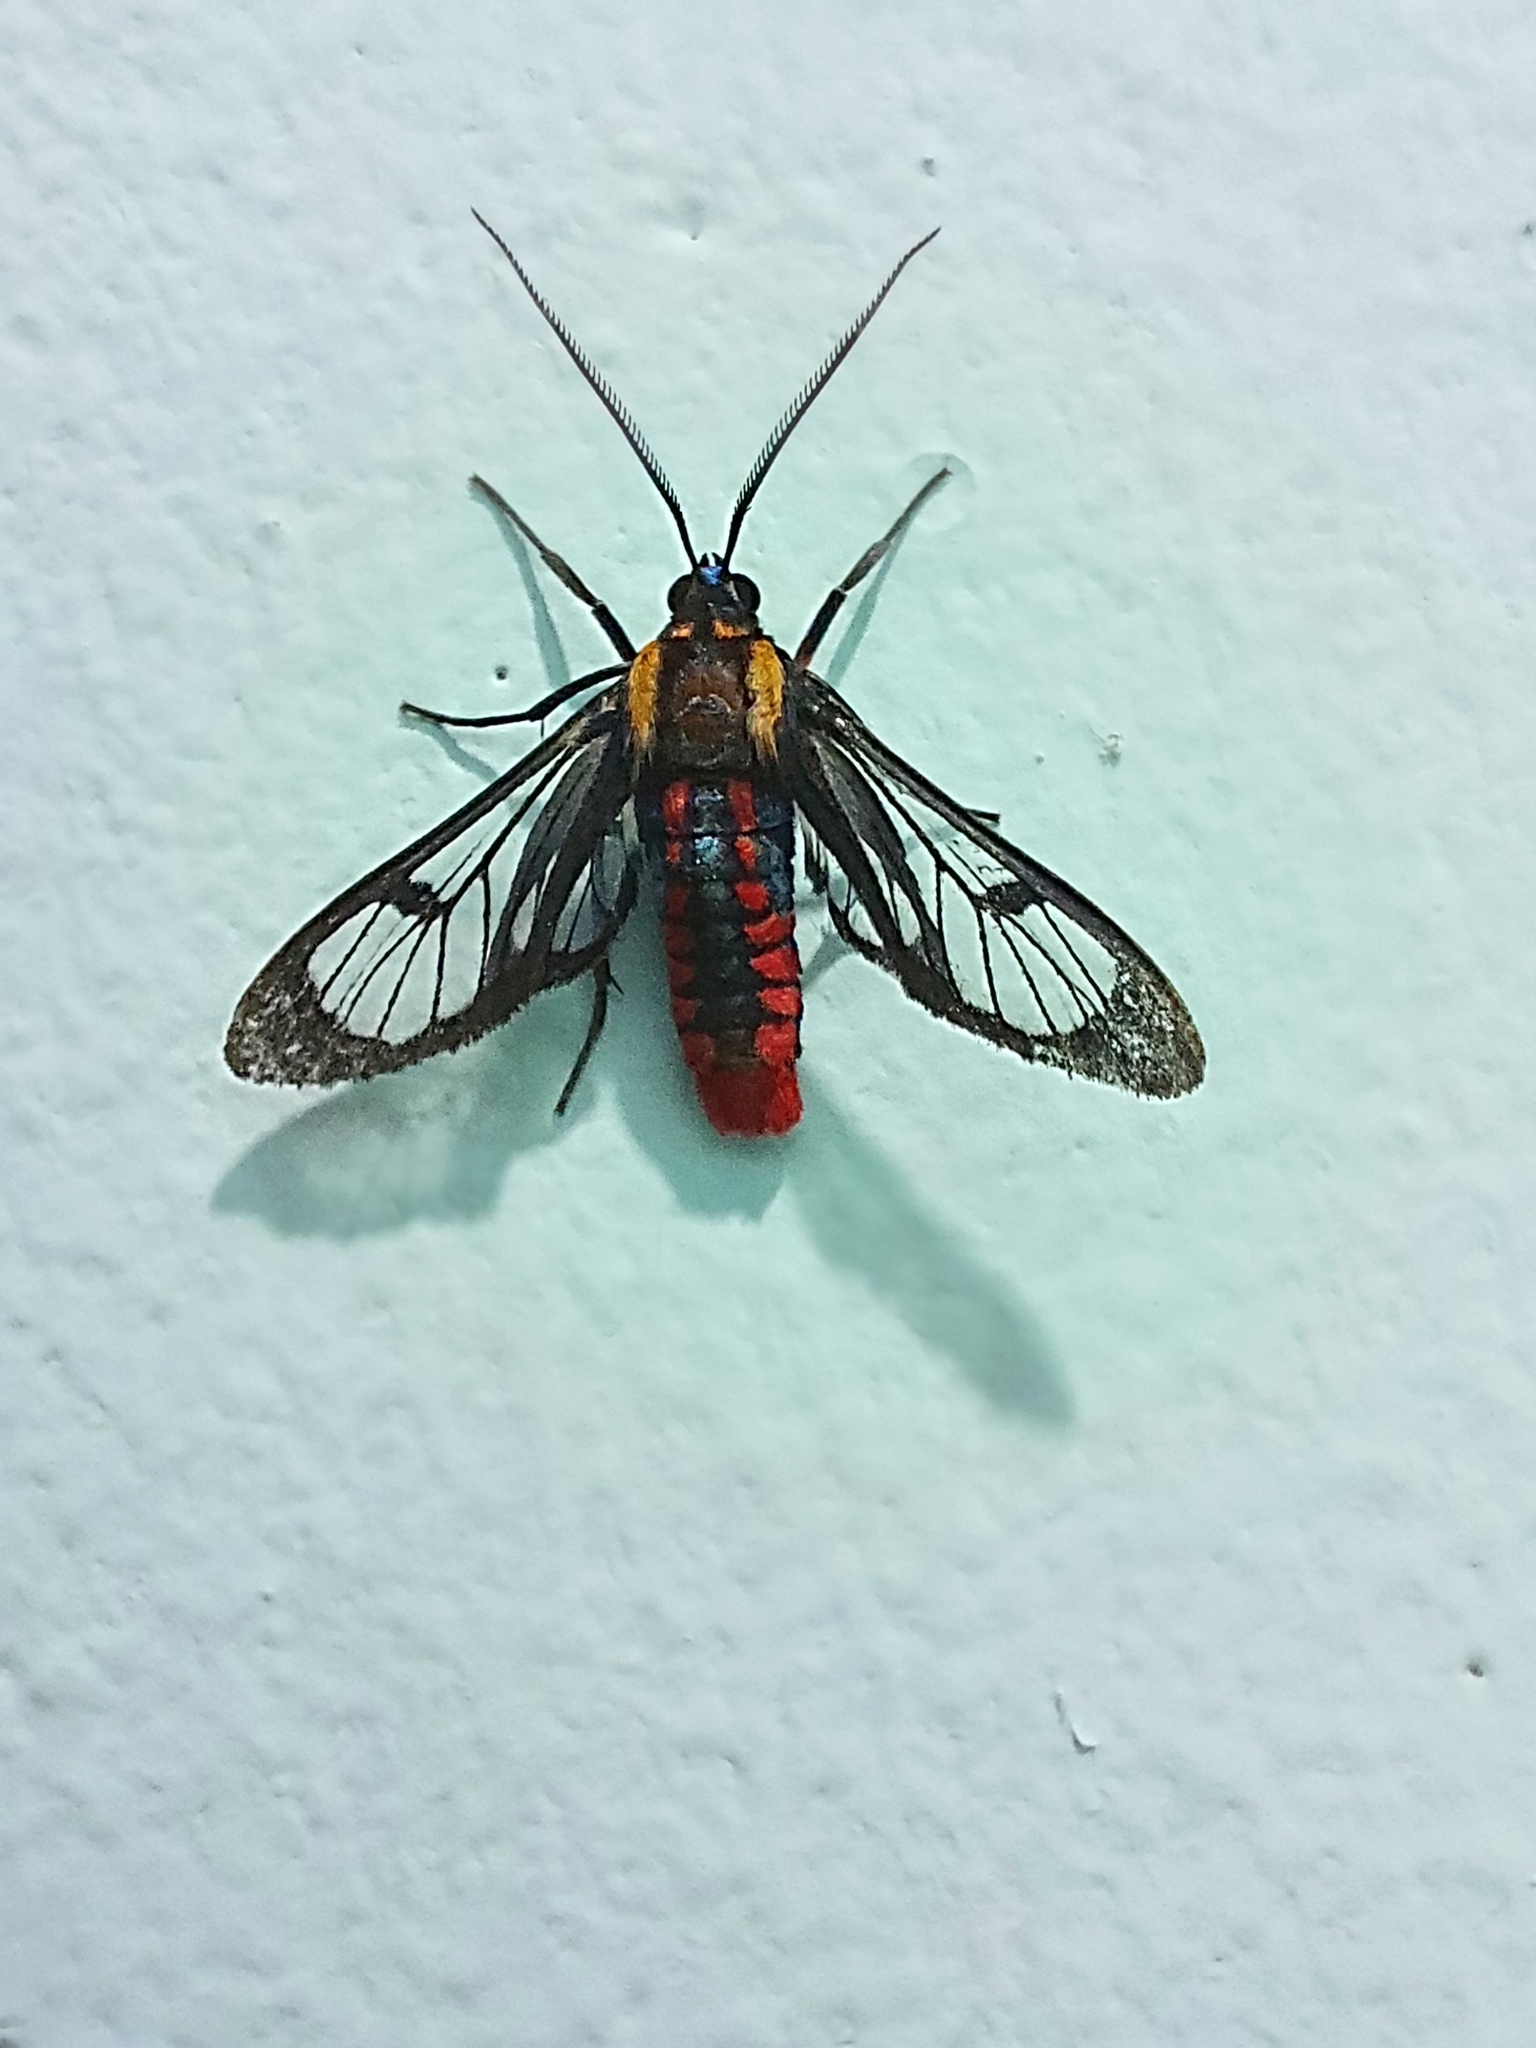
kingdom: Animalia
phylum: Arthropoda
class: Insecta
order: Lepidoptera
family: Erebidae
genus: Phoenicoprocta
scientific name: Phoenicoprocta sanguinea
